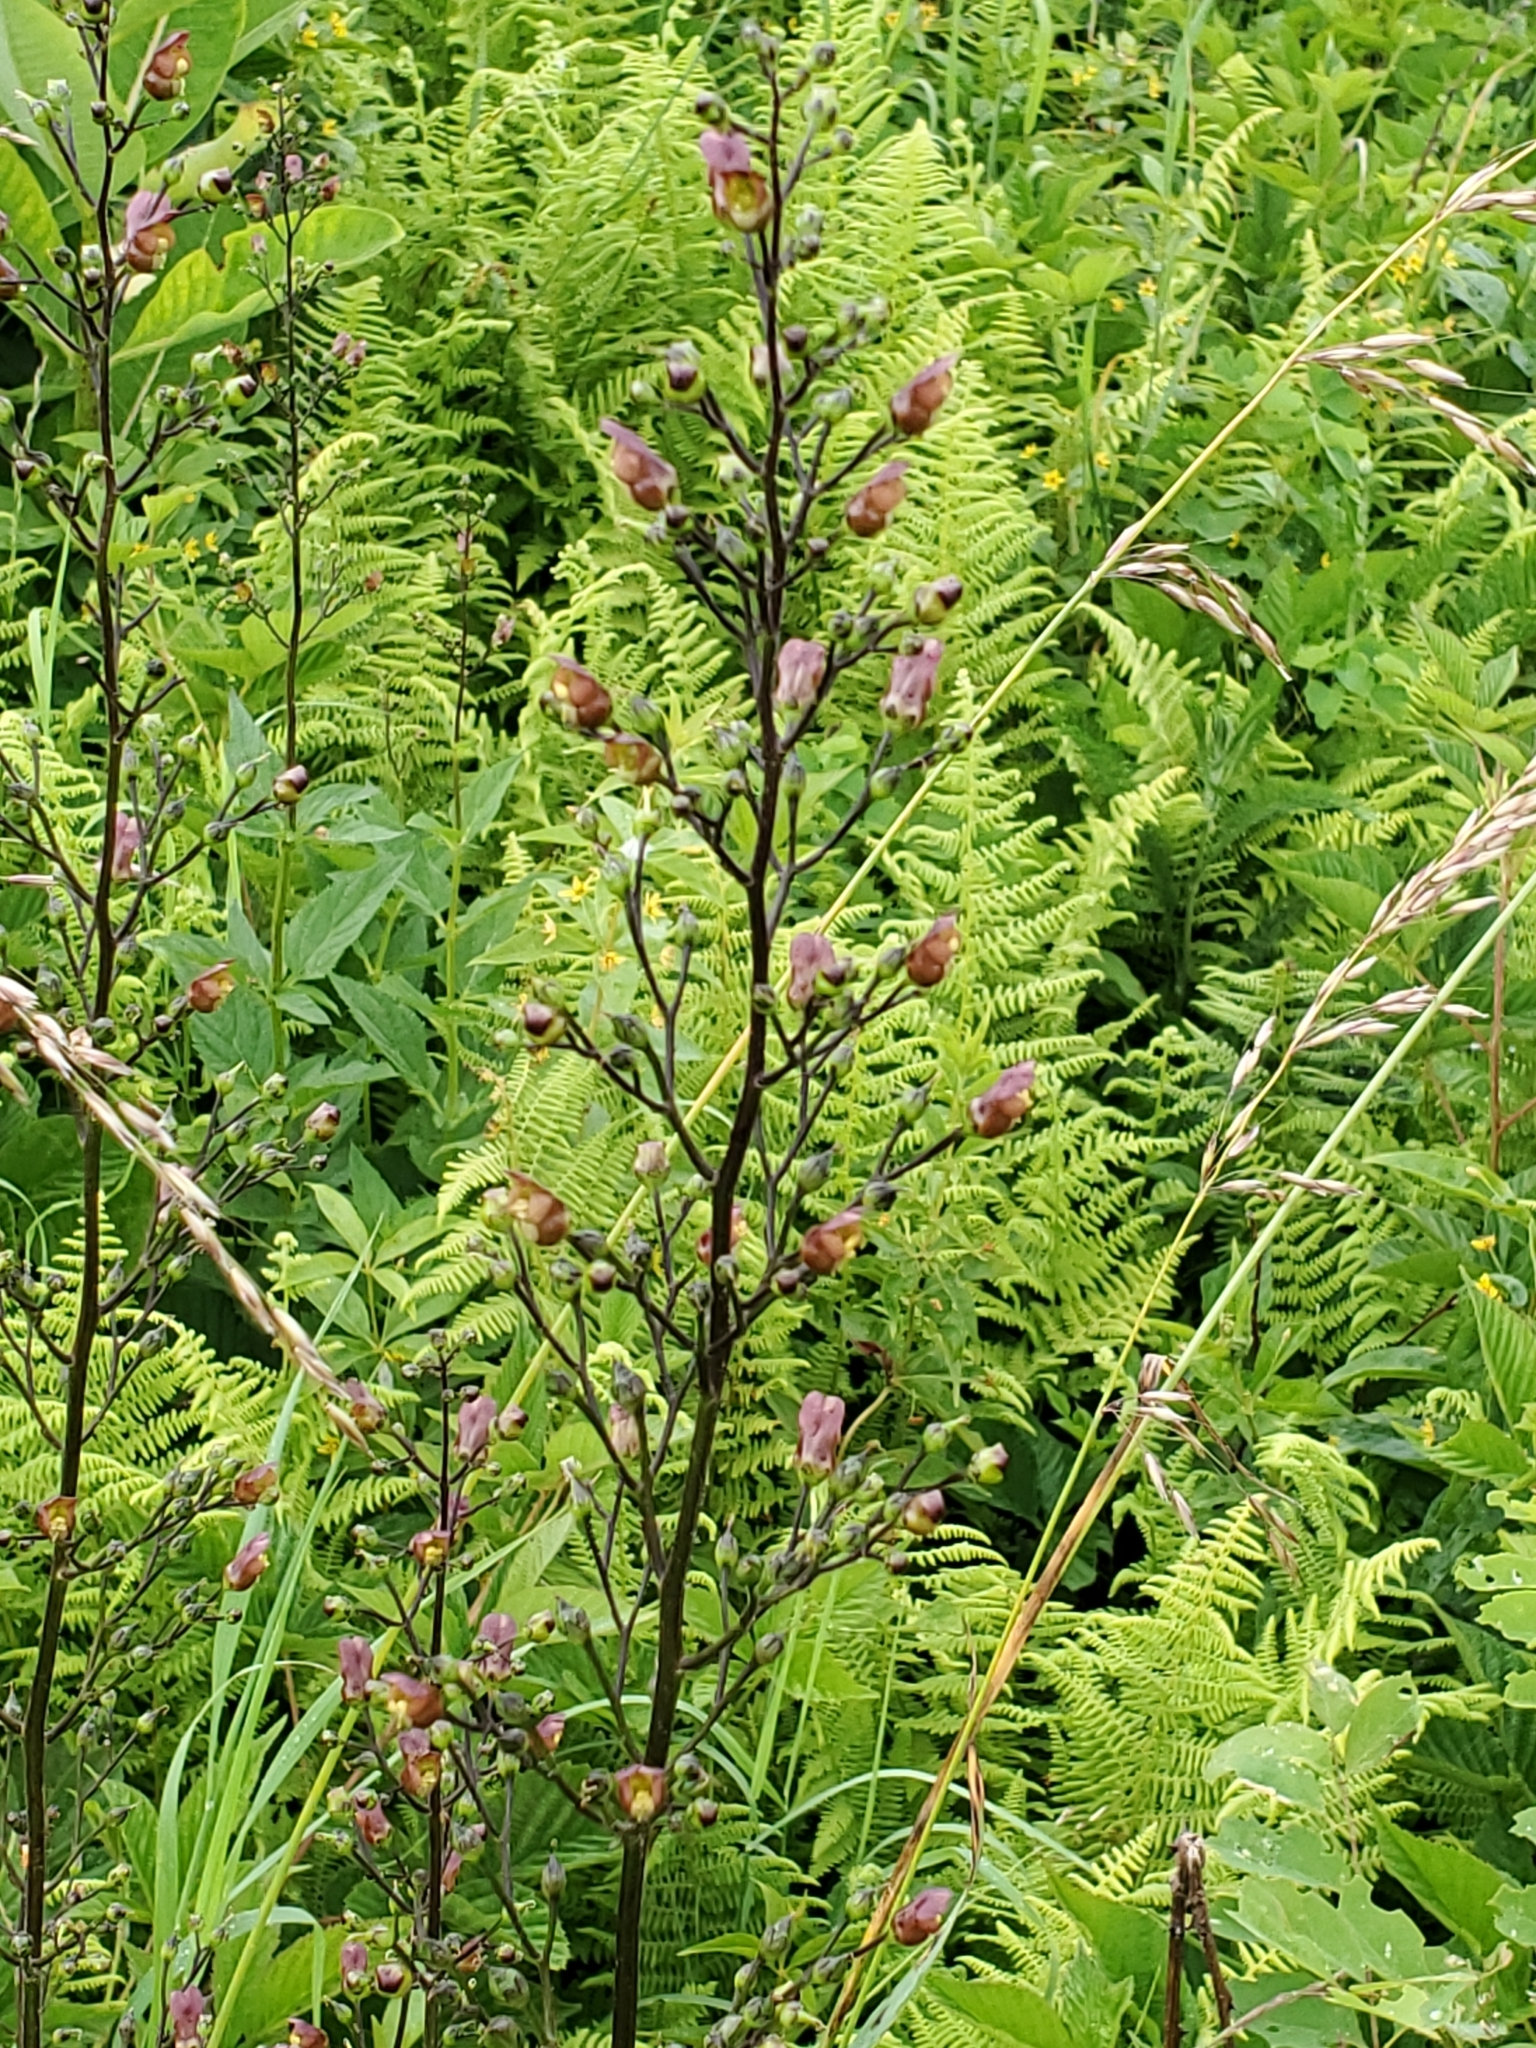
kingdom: Plantae
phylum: Tracheophyta
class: Magnoliopsida
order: Lamiales
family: Scrophulariaceae
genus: Scrophularia
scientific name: Scrophularia lanceolata
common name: American figwort
